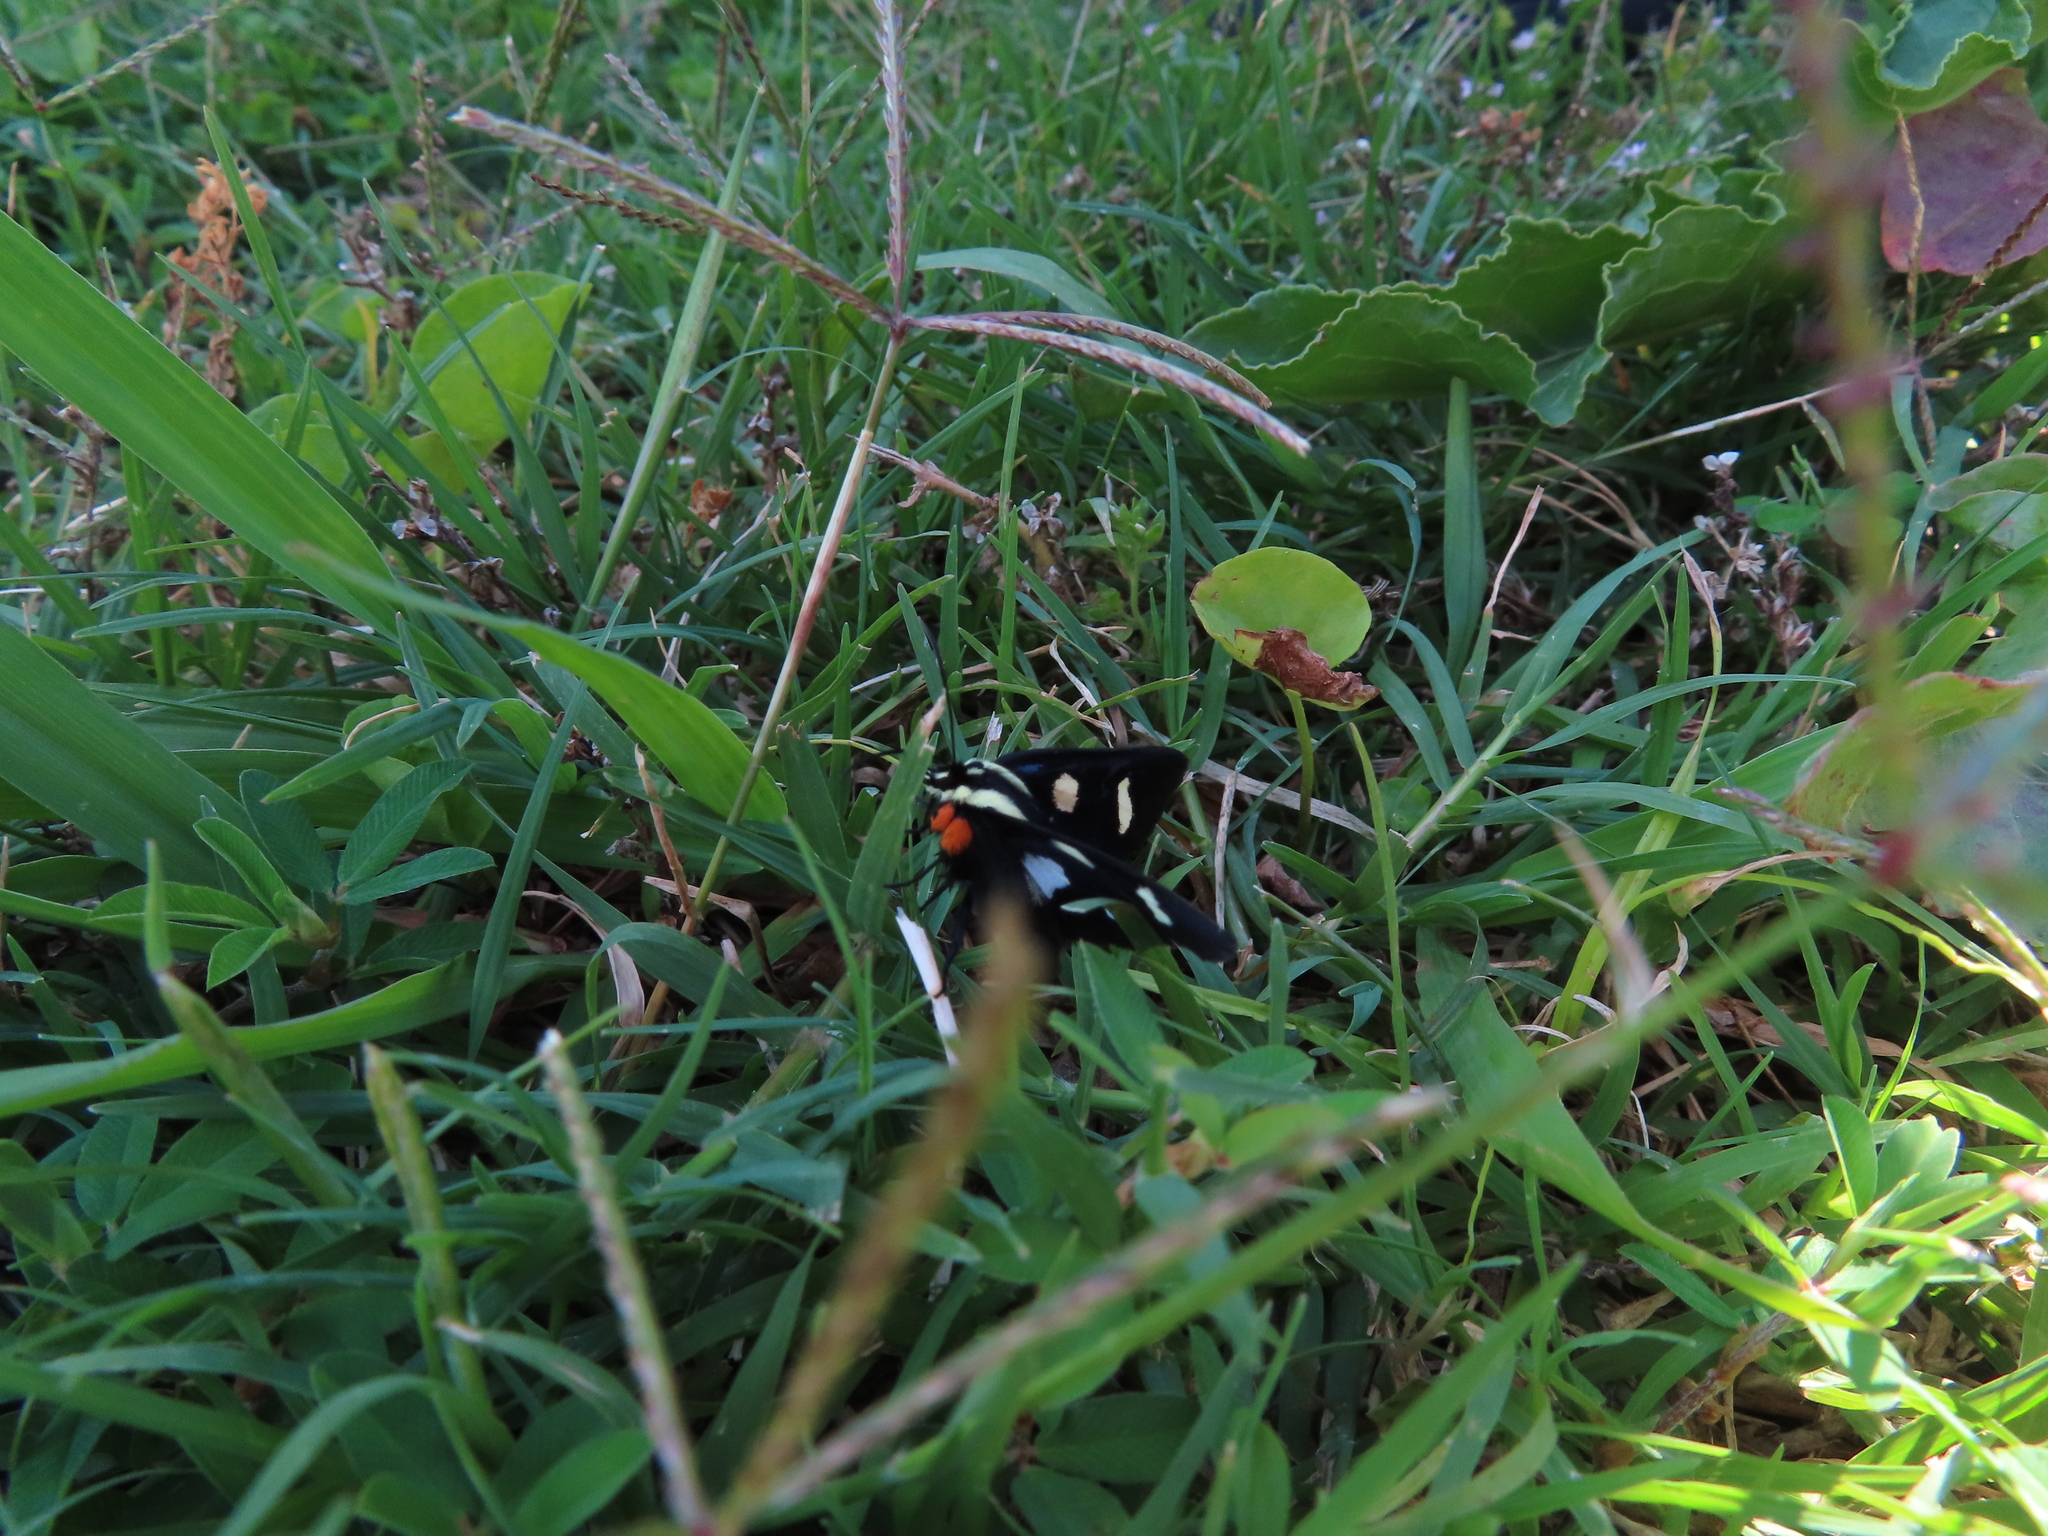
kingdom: Animalia
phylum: Arthropoda
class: Insecta
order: Lepidoptera
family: Noctuidae
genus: Alypia
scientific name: Alypia octomaculata
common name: Eight-spotted forester
